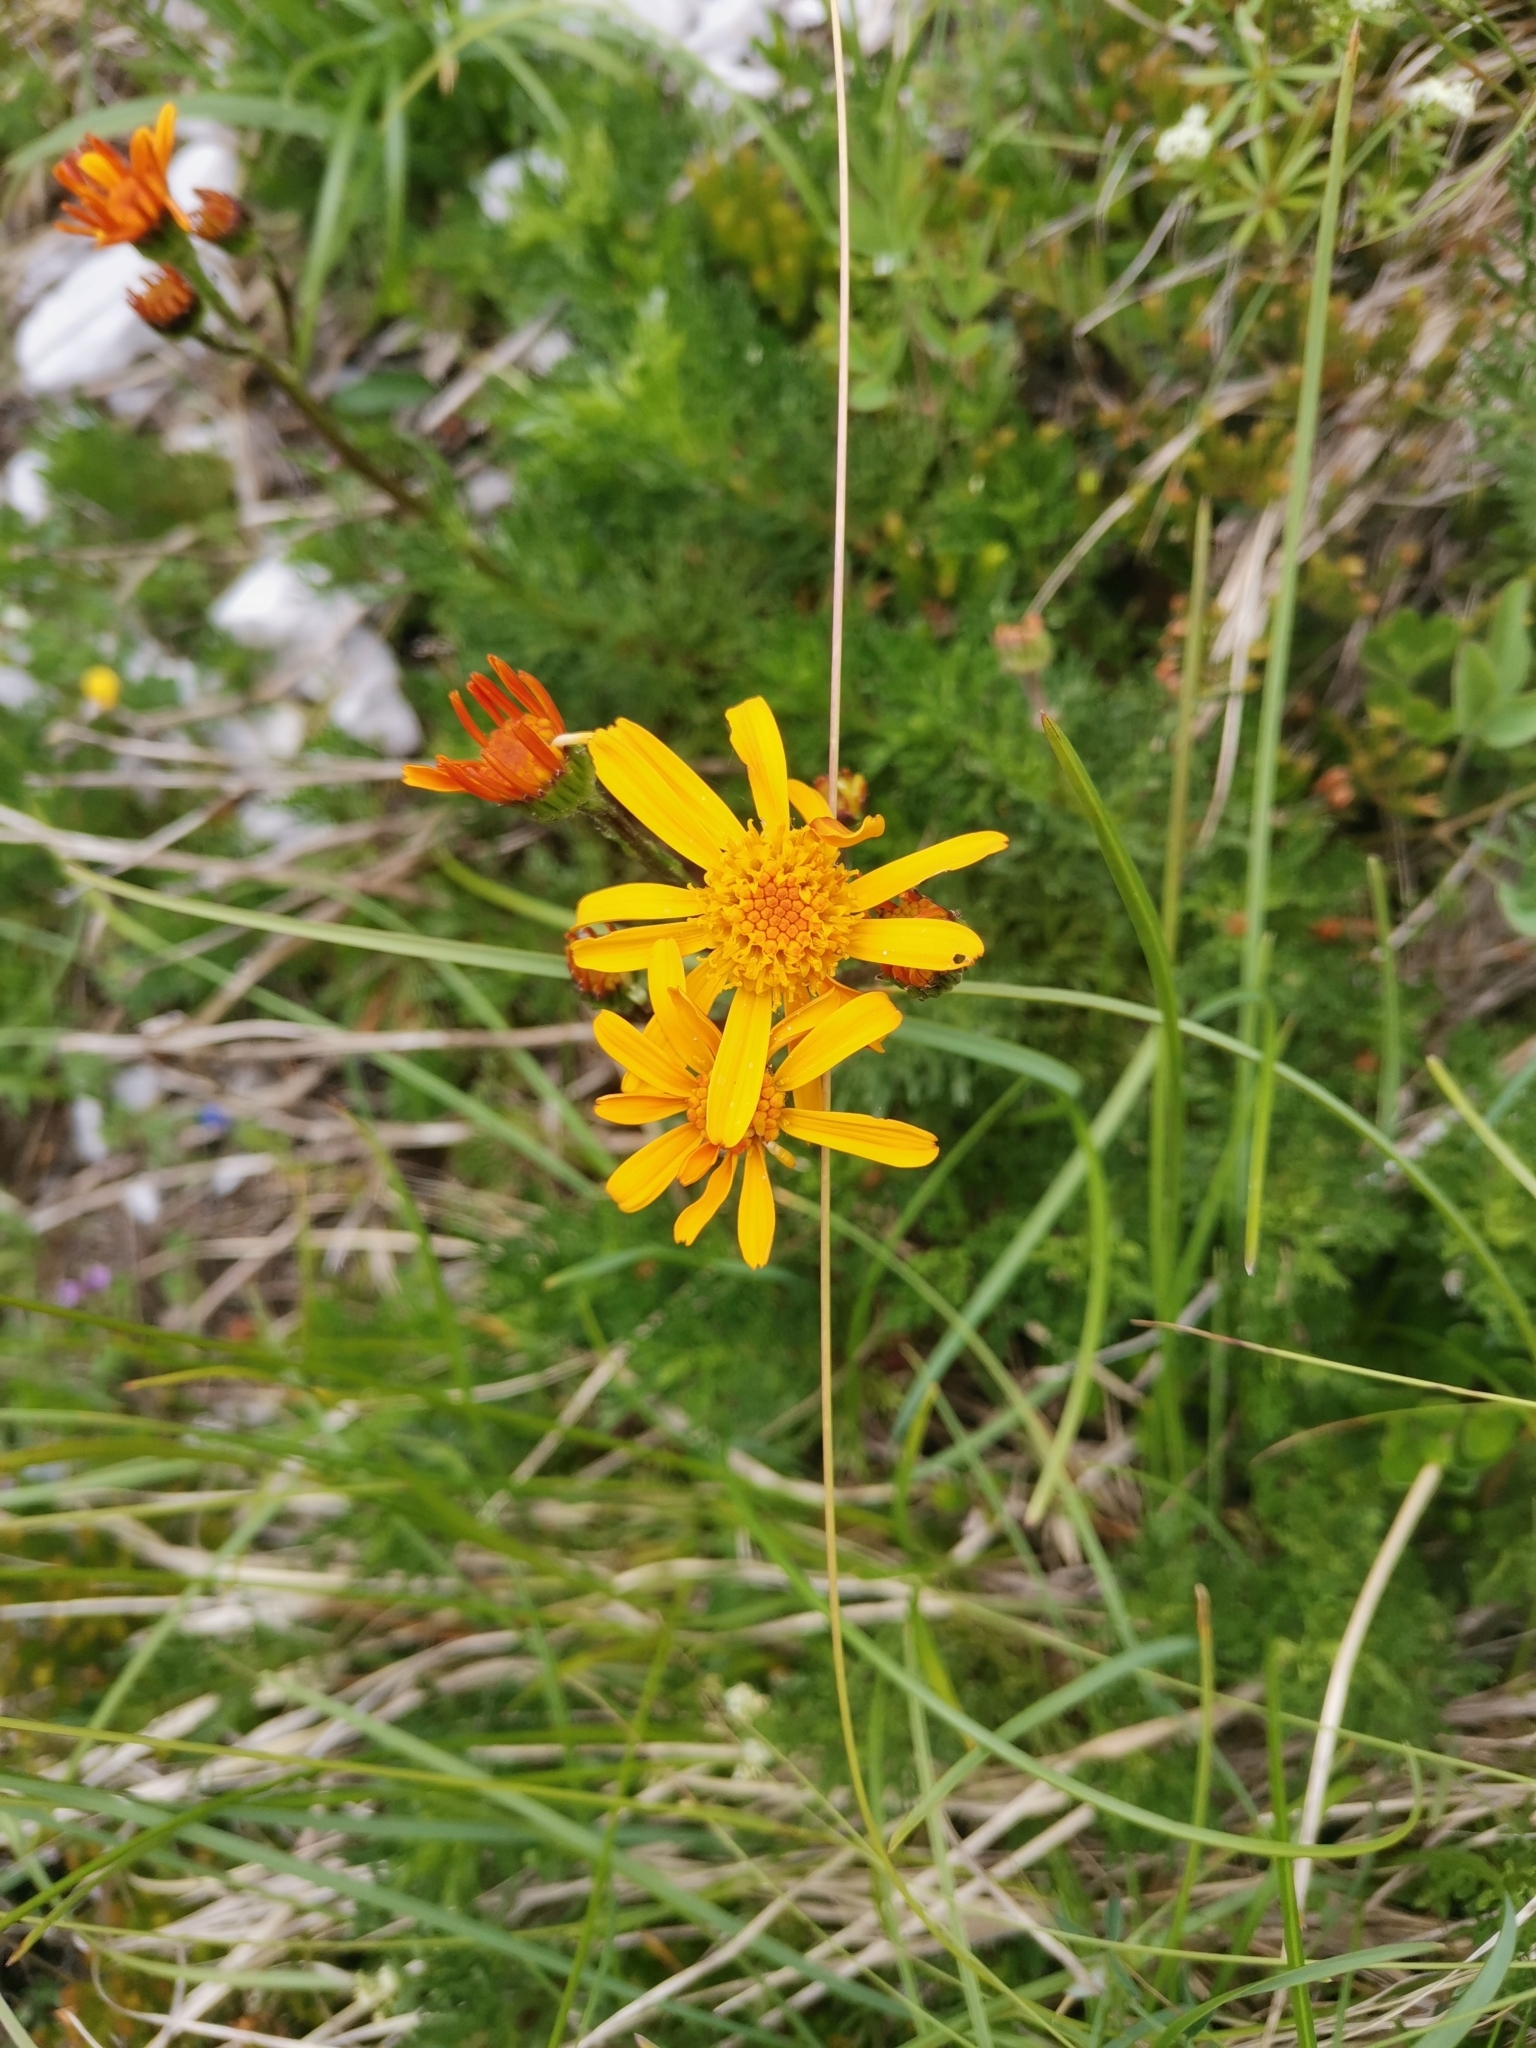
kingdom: Plantae
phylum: Tracheophyta
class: Magnoliopsida
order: Asterales
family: Asteraceae
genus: Jacobaea
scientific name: Jacobaea abrotanifolia
